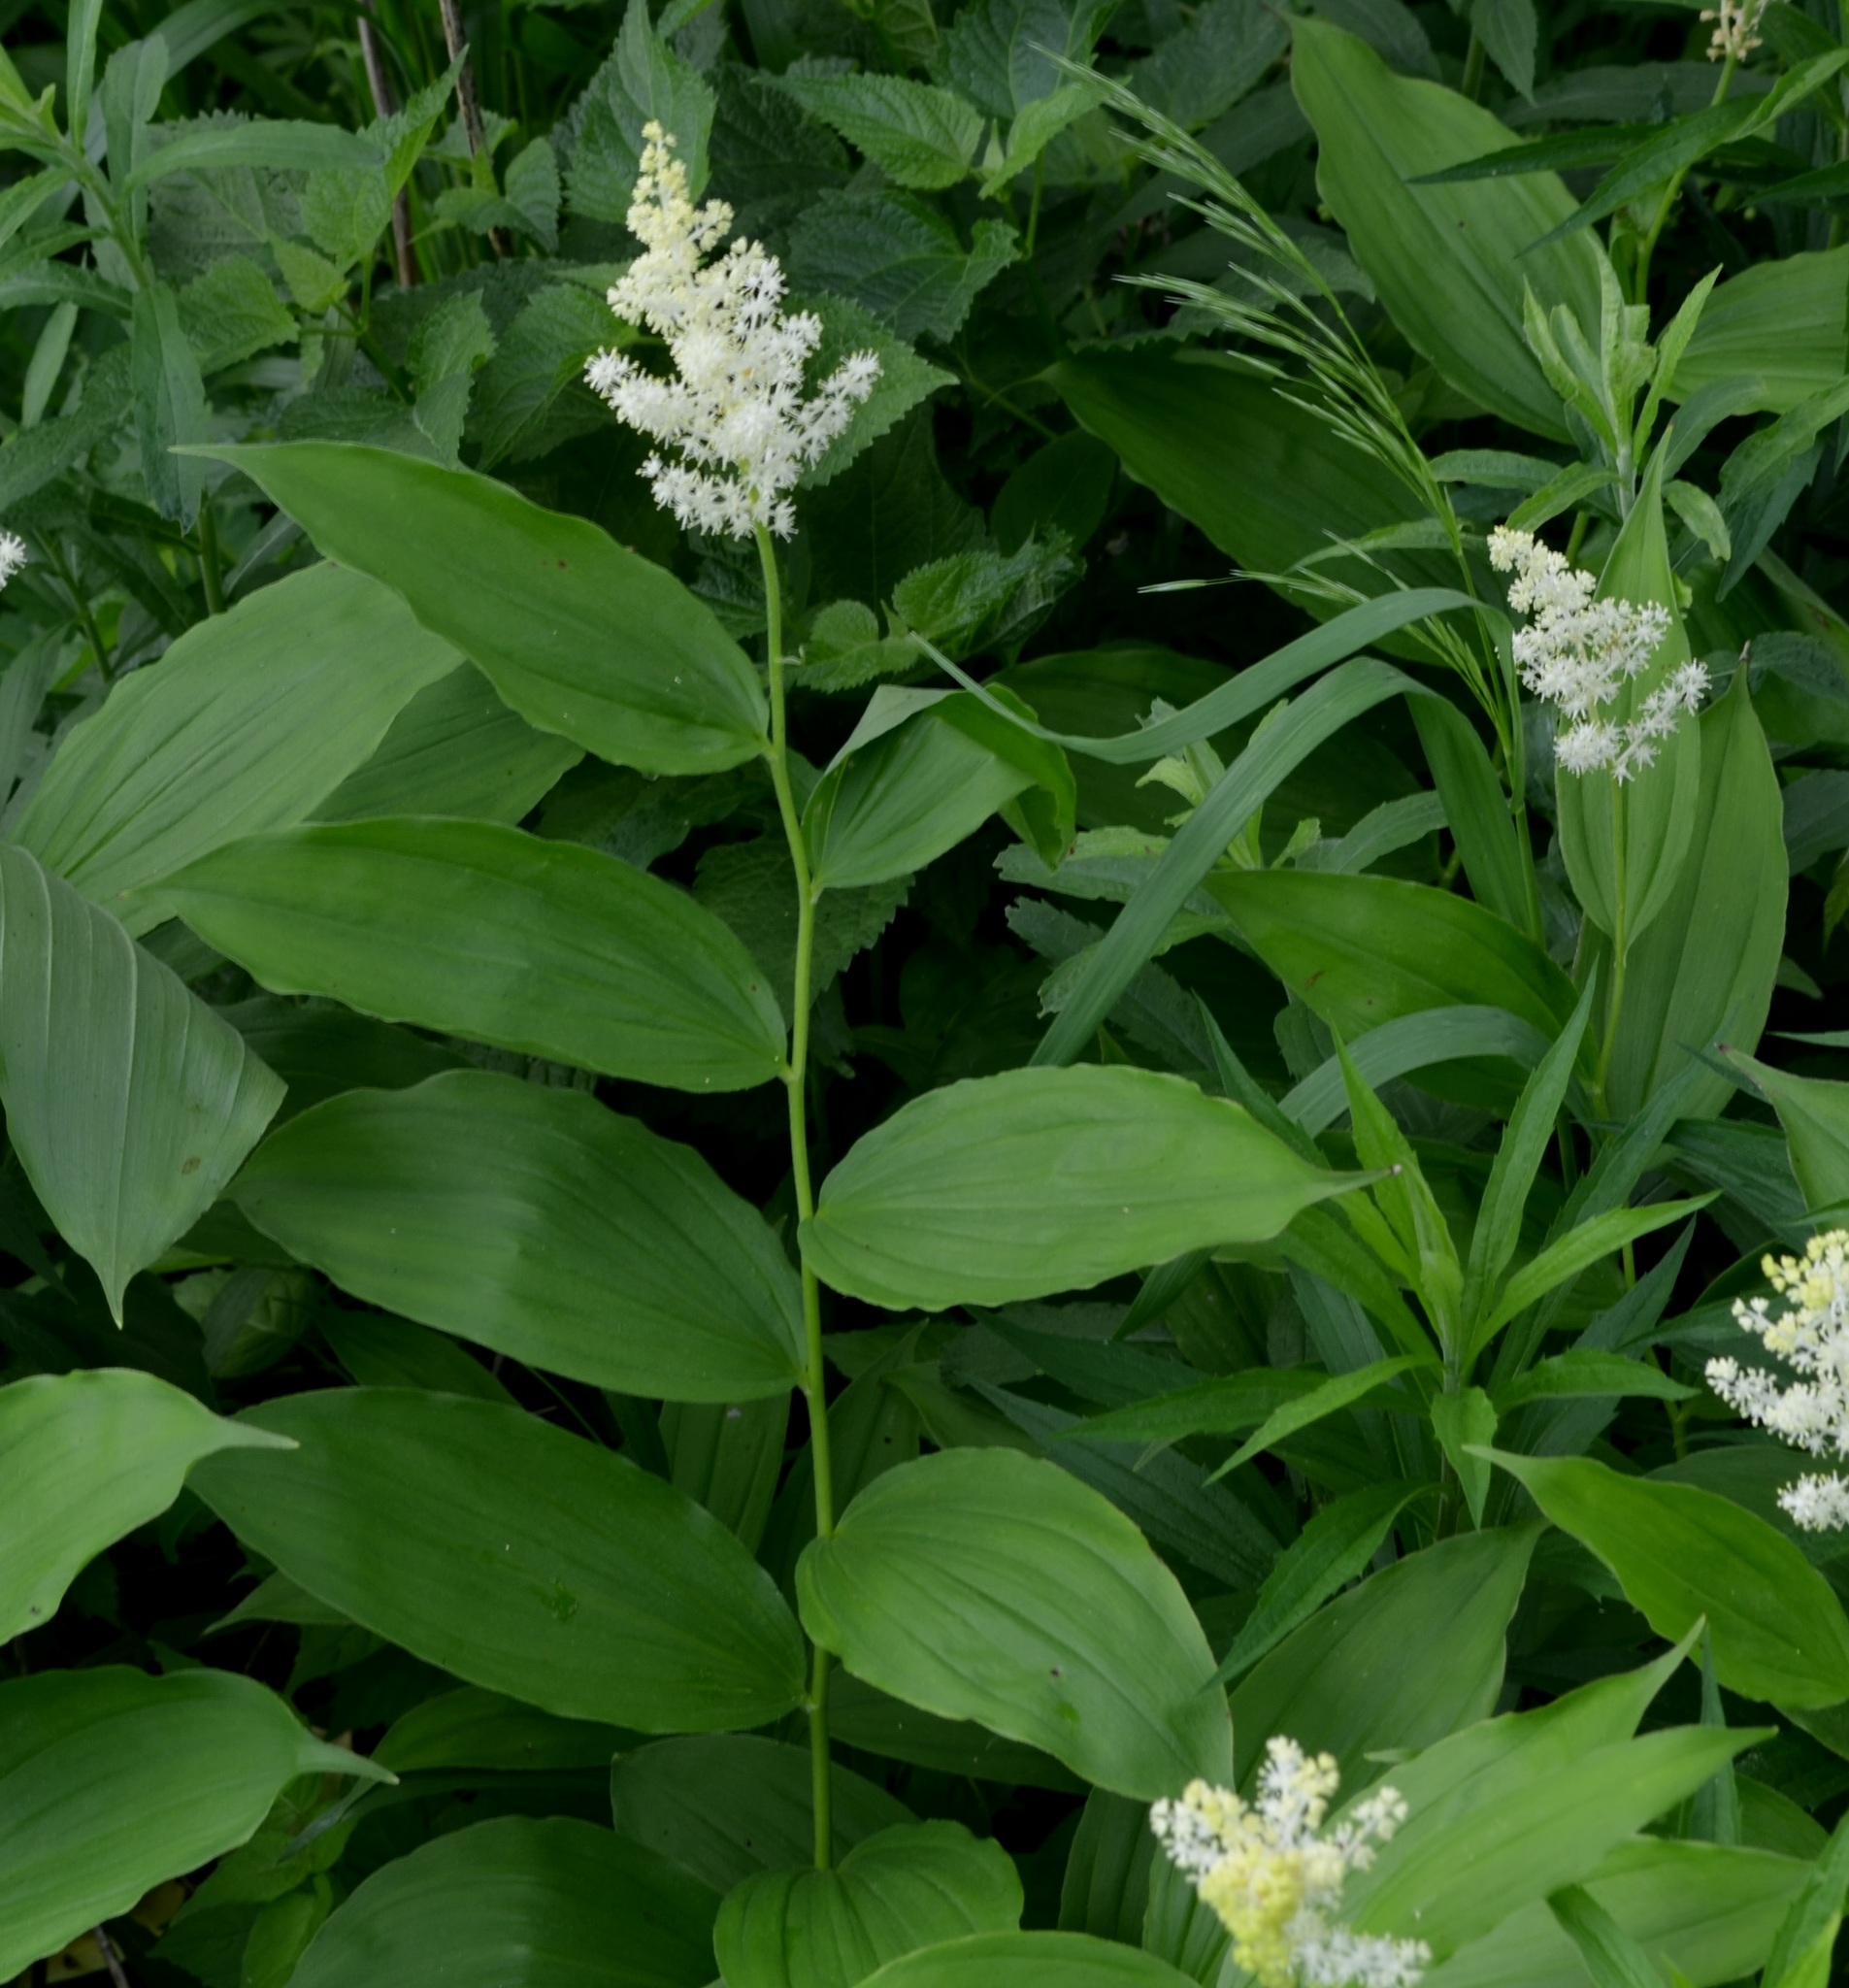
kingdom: Plantae
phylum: Tracheophyta
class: Liliopsida
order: Asparagales
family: Asparagaceae
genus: Maianthemum
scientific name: Maianthemum racemosum
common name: False spikenard
